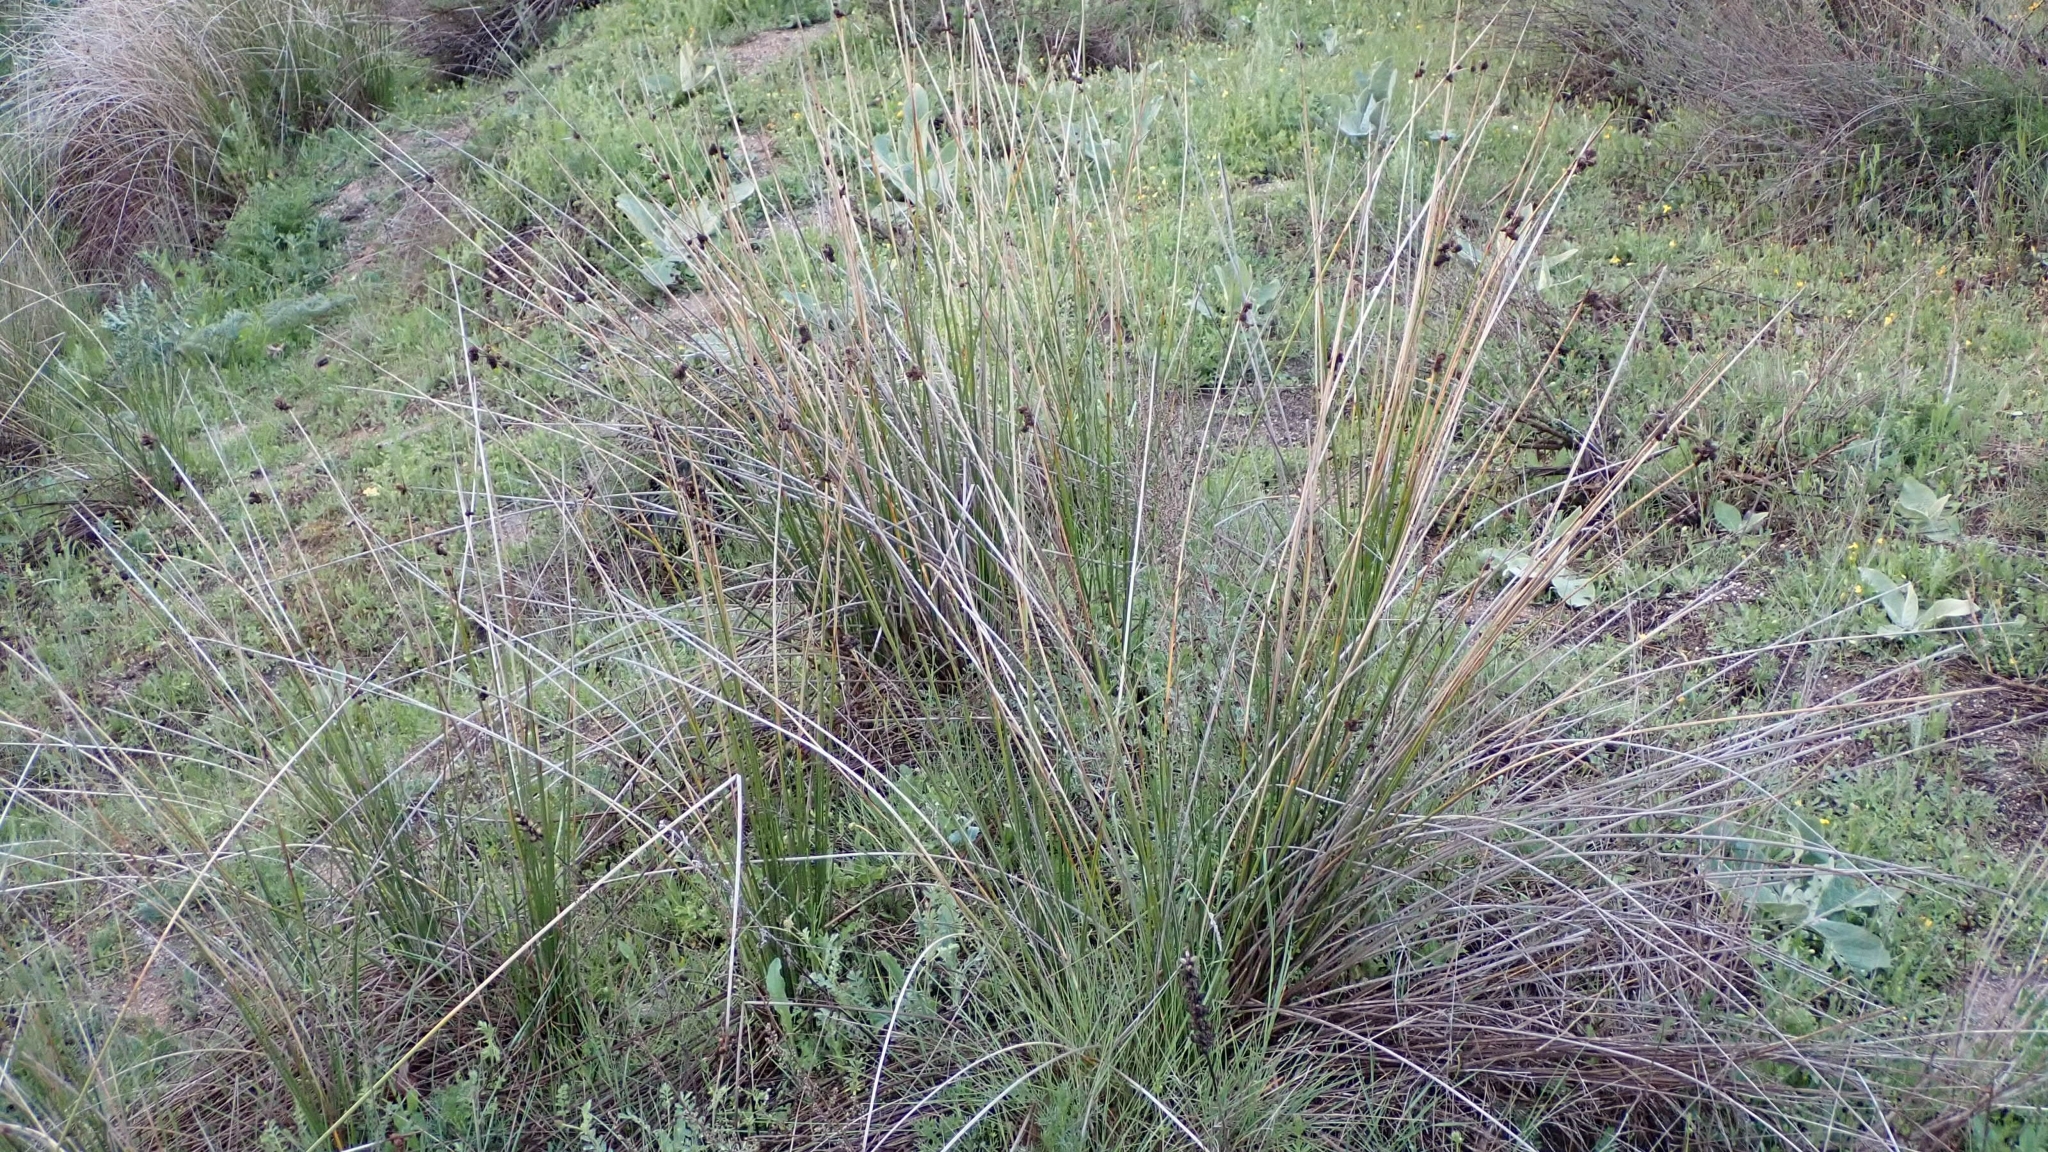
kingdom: Plantae
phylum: Tracheophyta
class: Liliopsida
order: Poales
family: Cyperaceae
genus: Scirpoides
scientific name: Scirpoides holoschoenus
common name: Round-headed club-rush
